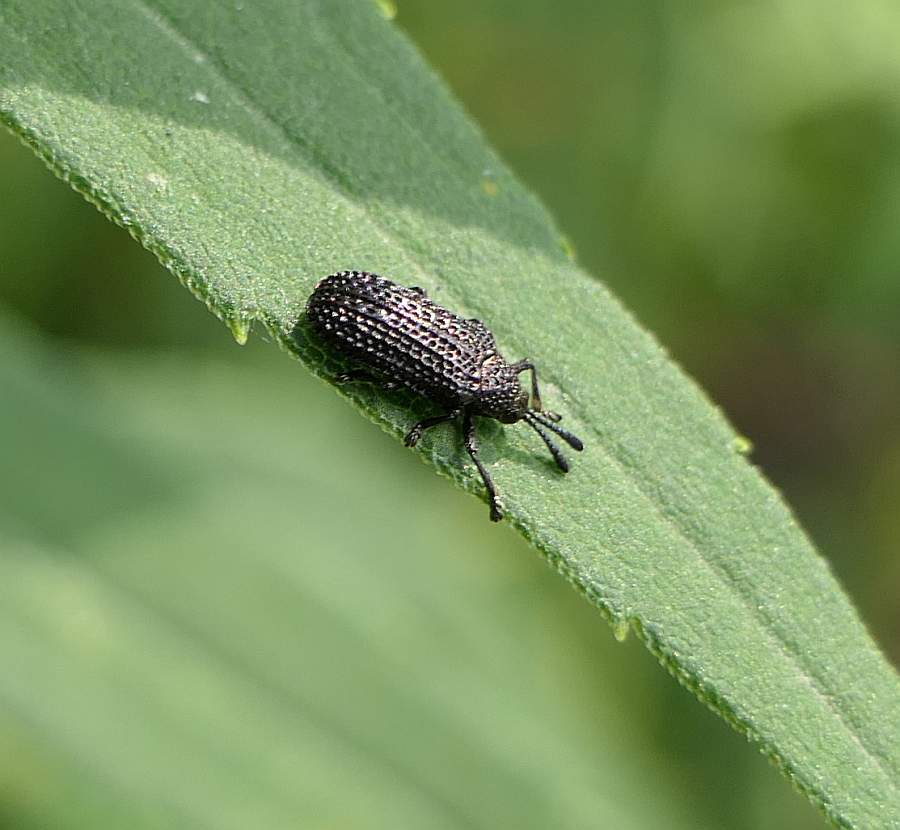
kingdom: Animalia
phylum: Arthropoda
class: Insecta
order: Coleoptera
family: Chrysomelidae
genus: Microrhopala
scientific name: Microrhopala excavata
